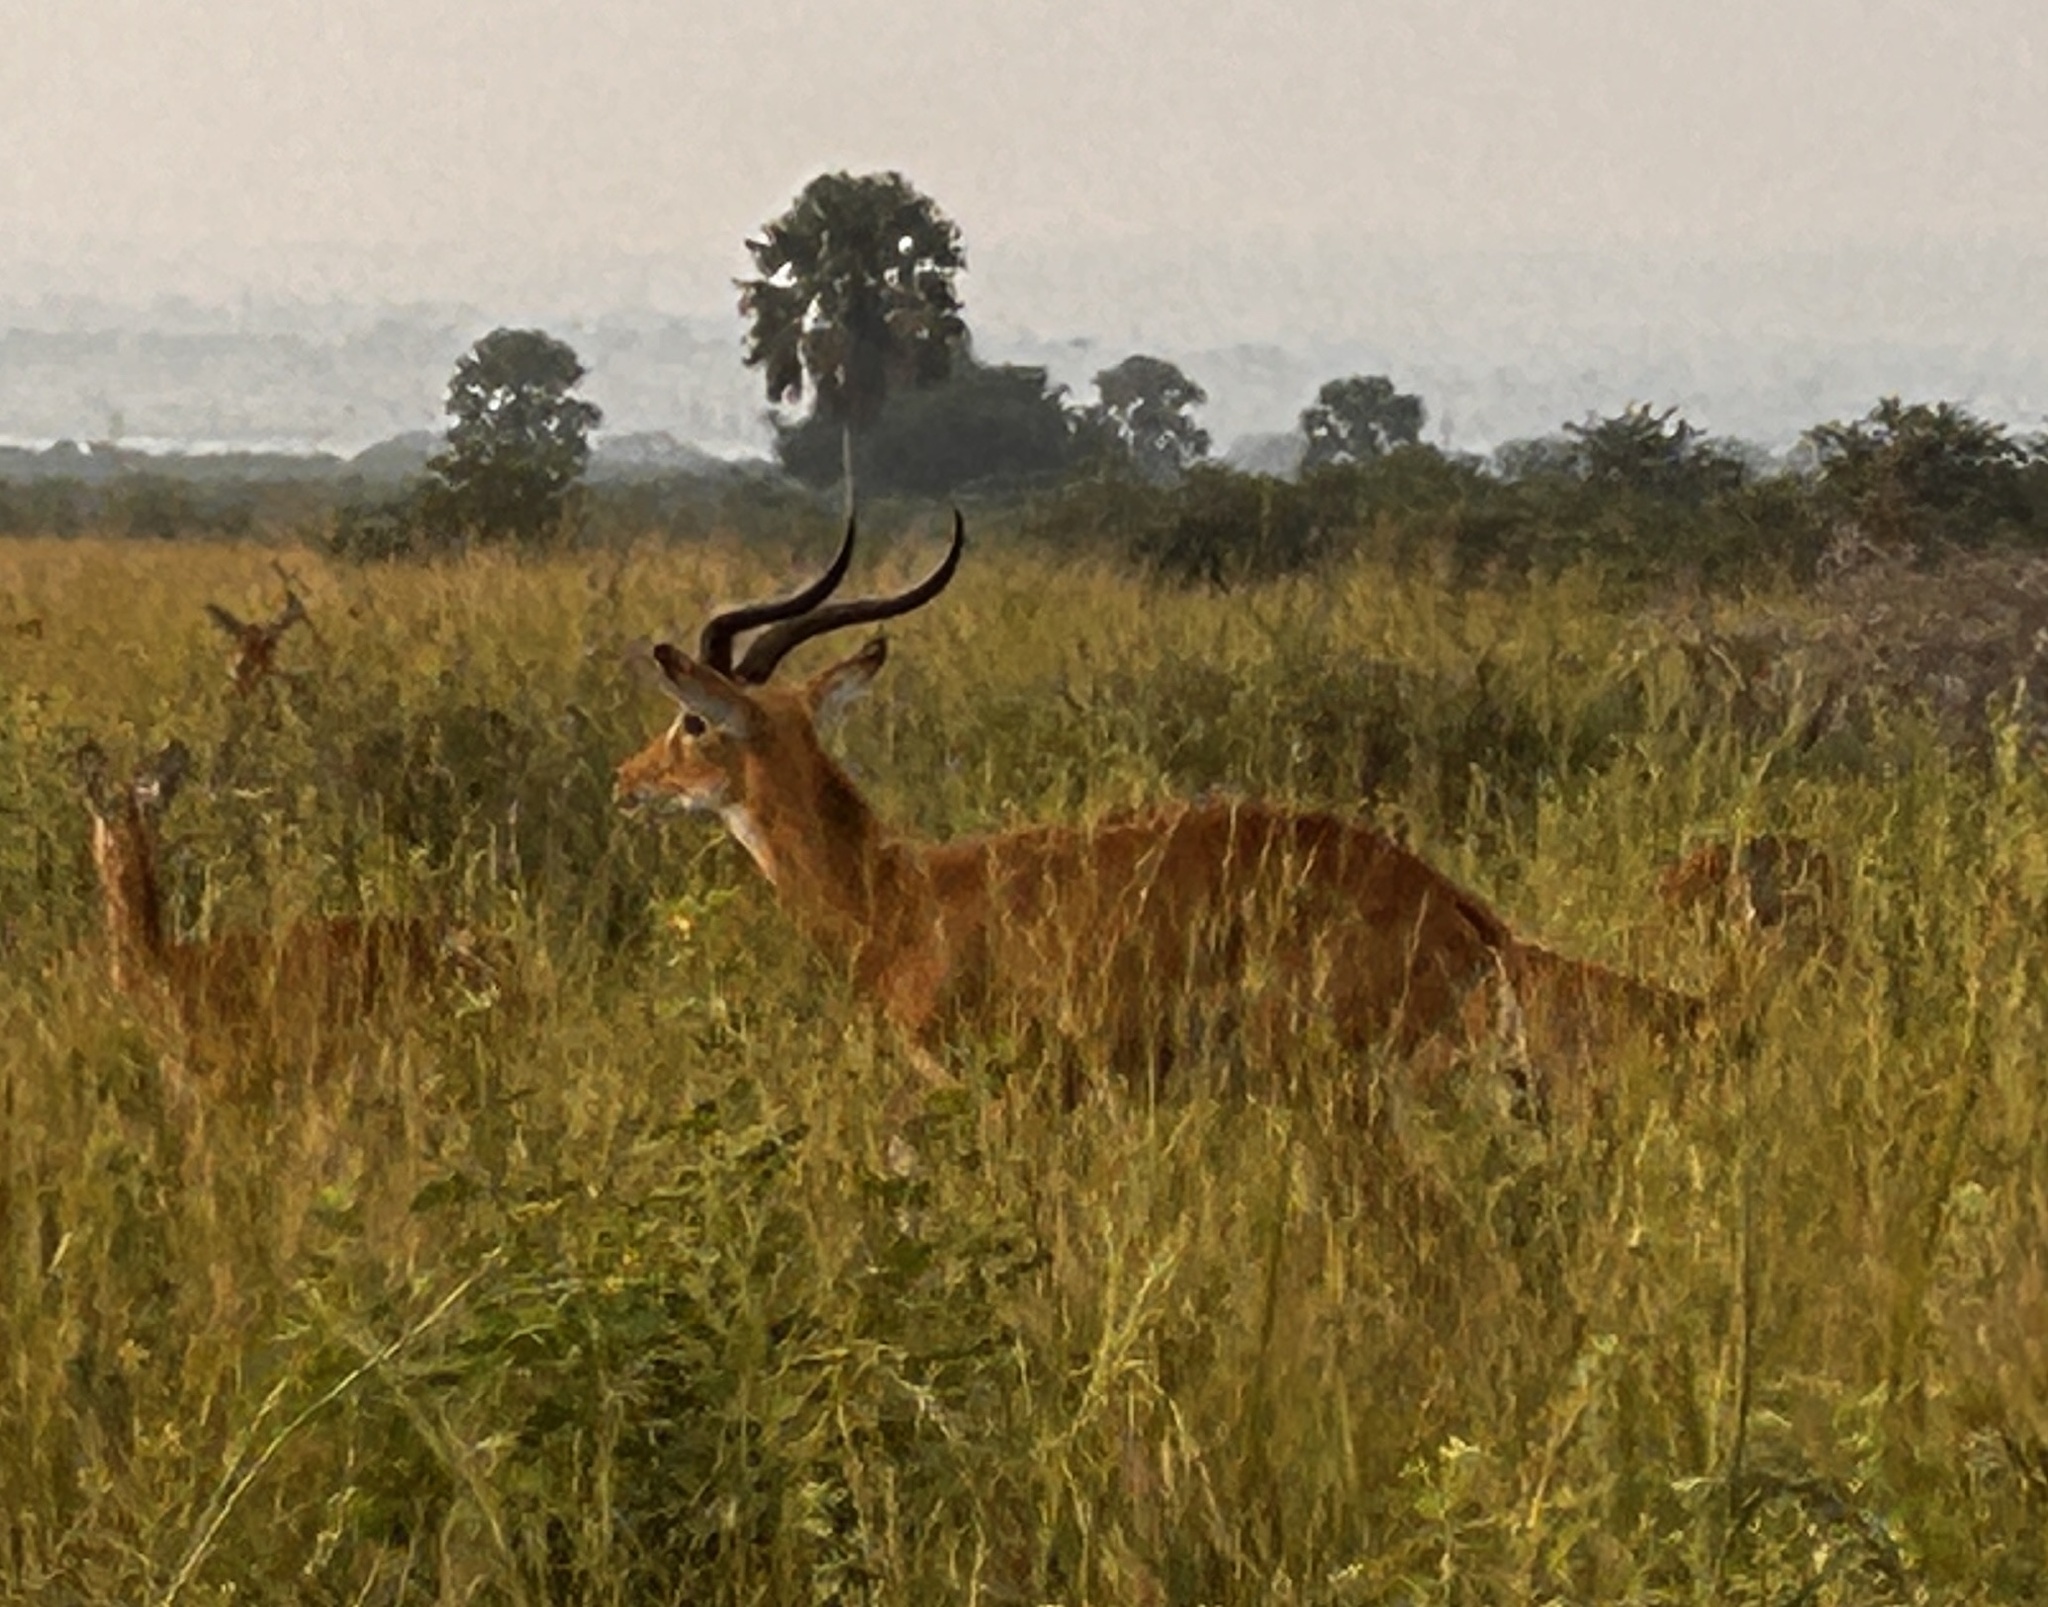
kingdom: Animalia
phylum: Chordata
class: Mammalia
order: Artiodactyla
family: Bovidae
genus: Kobus
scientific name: Kobus kob
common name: Kob
